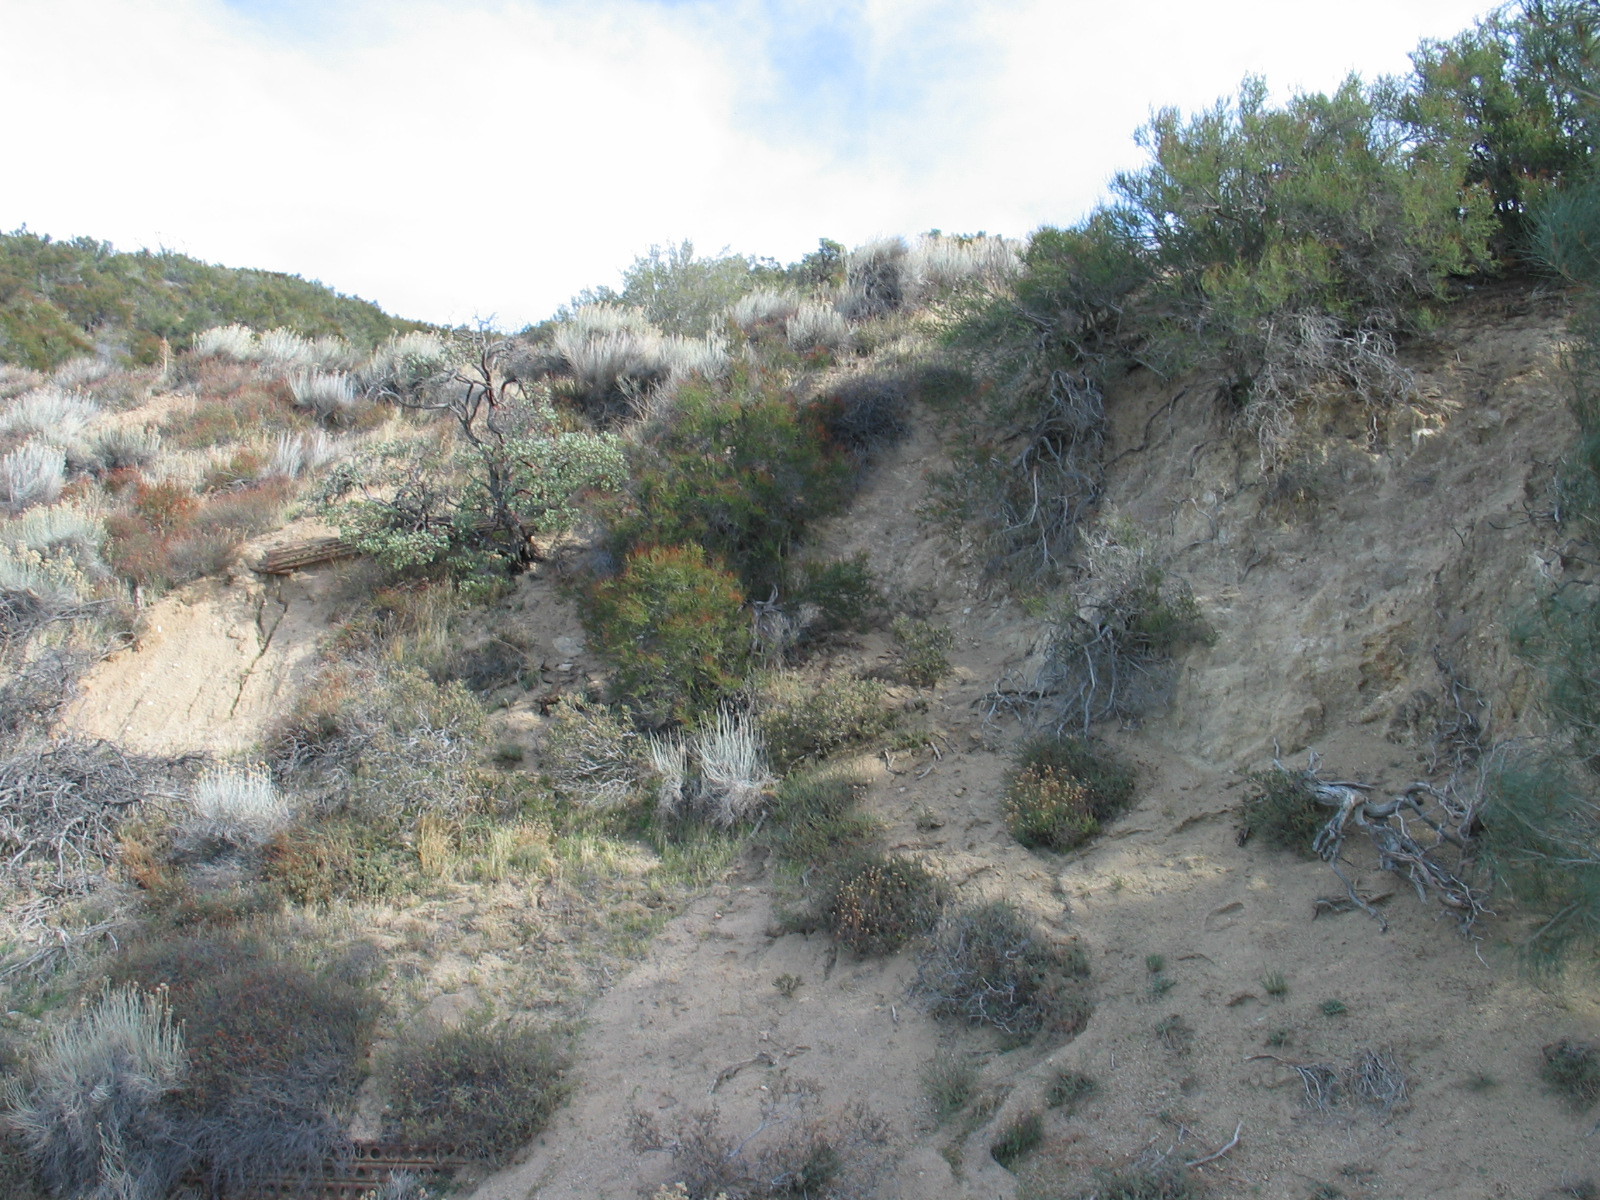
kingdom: Plantae
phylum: Tracheophyta
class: Magnoliopsida
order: Rosales
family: Rosaceae
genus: Adenostoma
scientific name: Adenostoma fasciculatum
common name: Chamise
